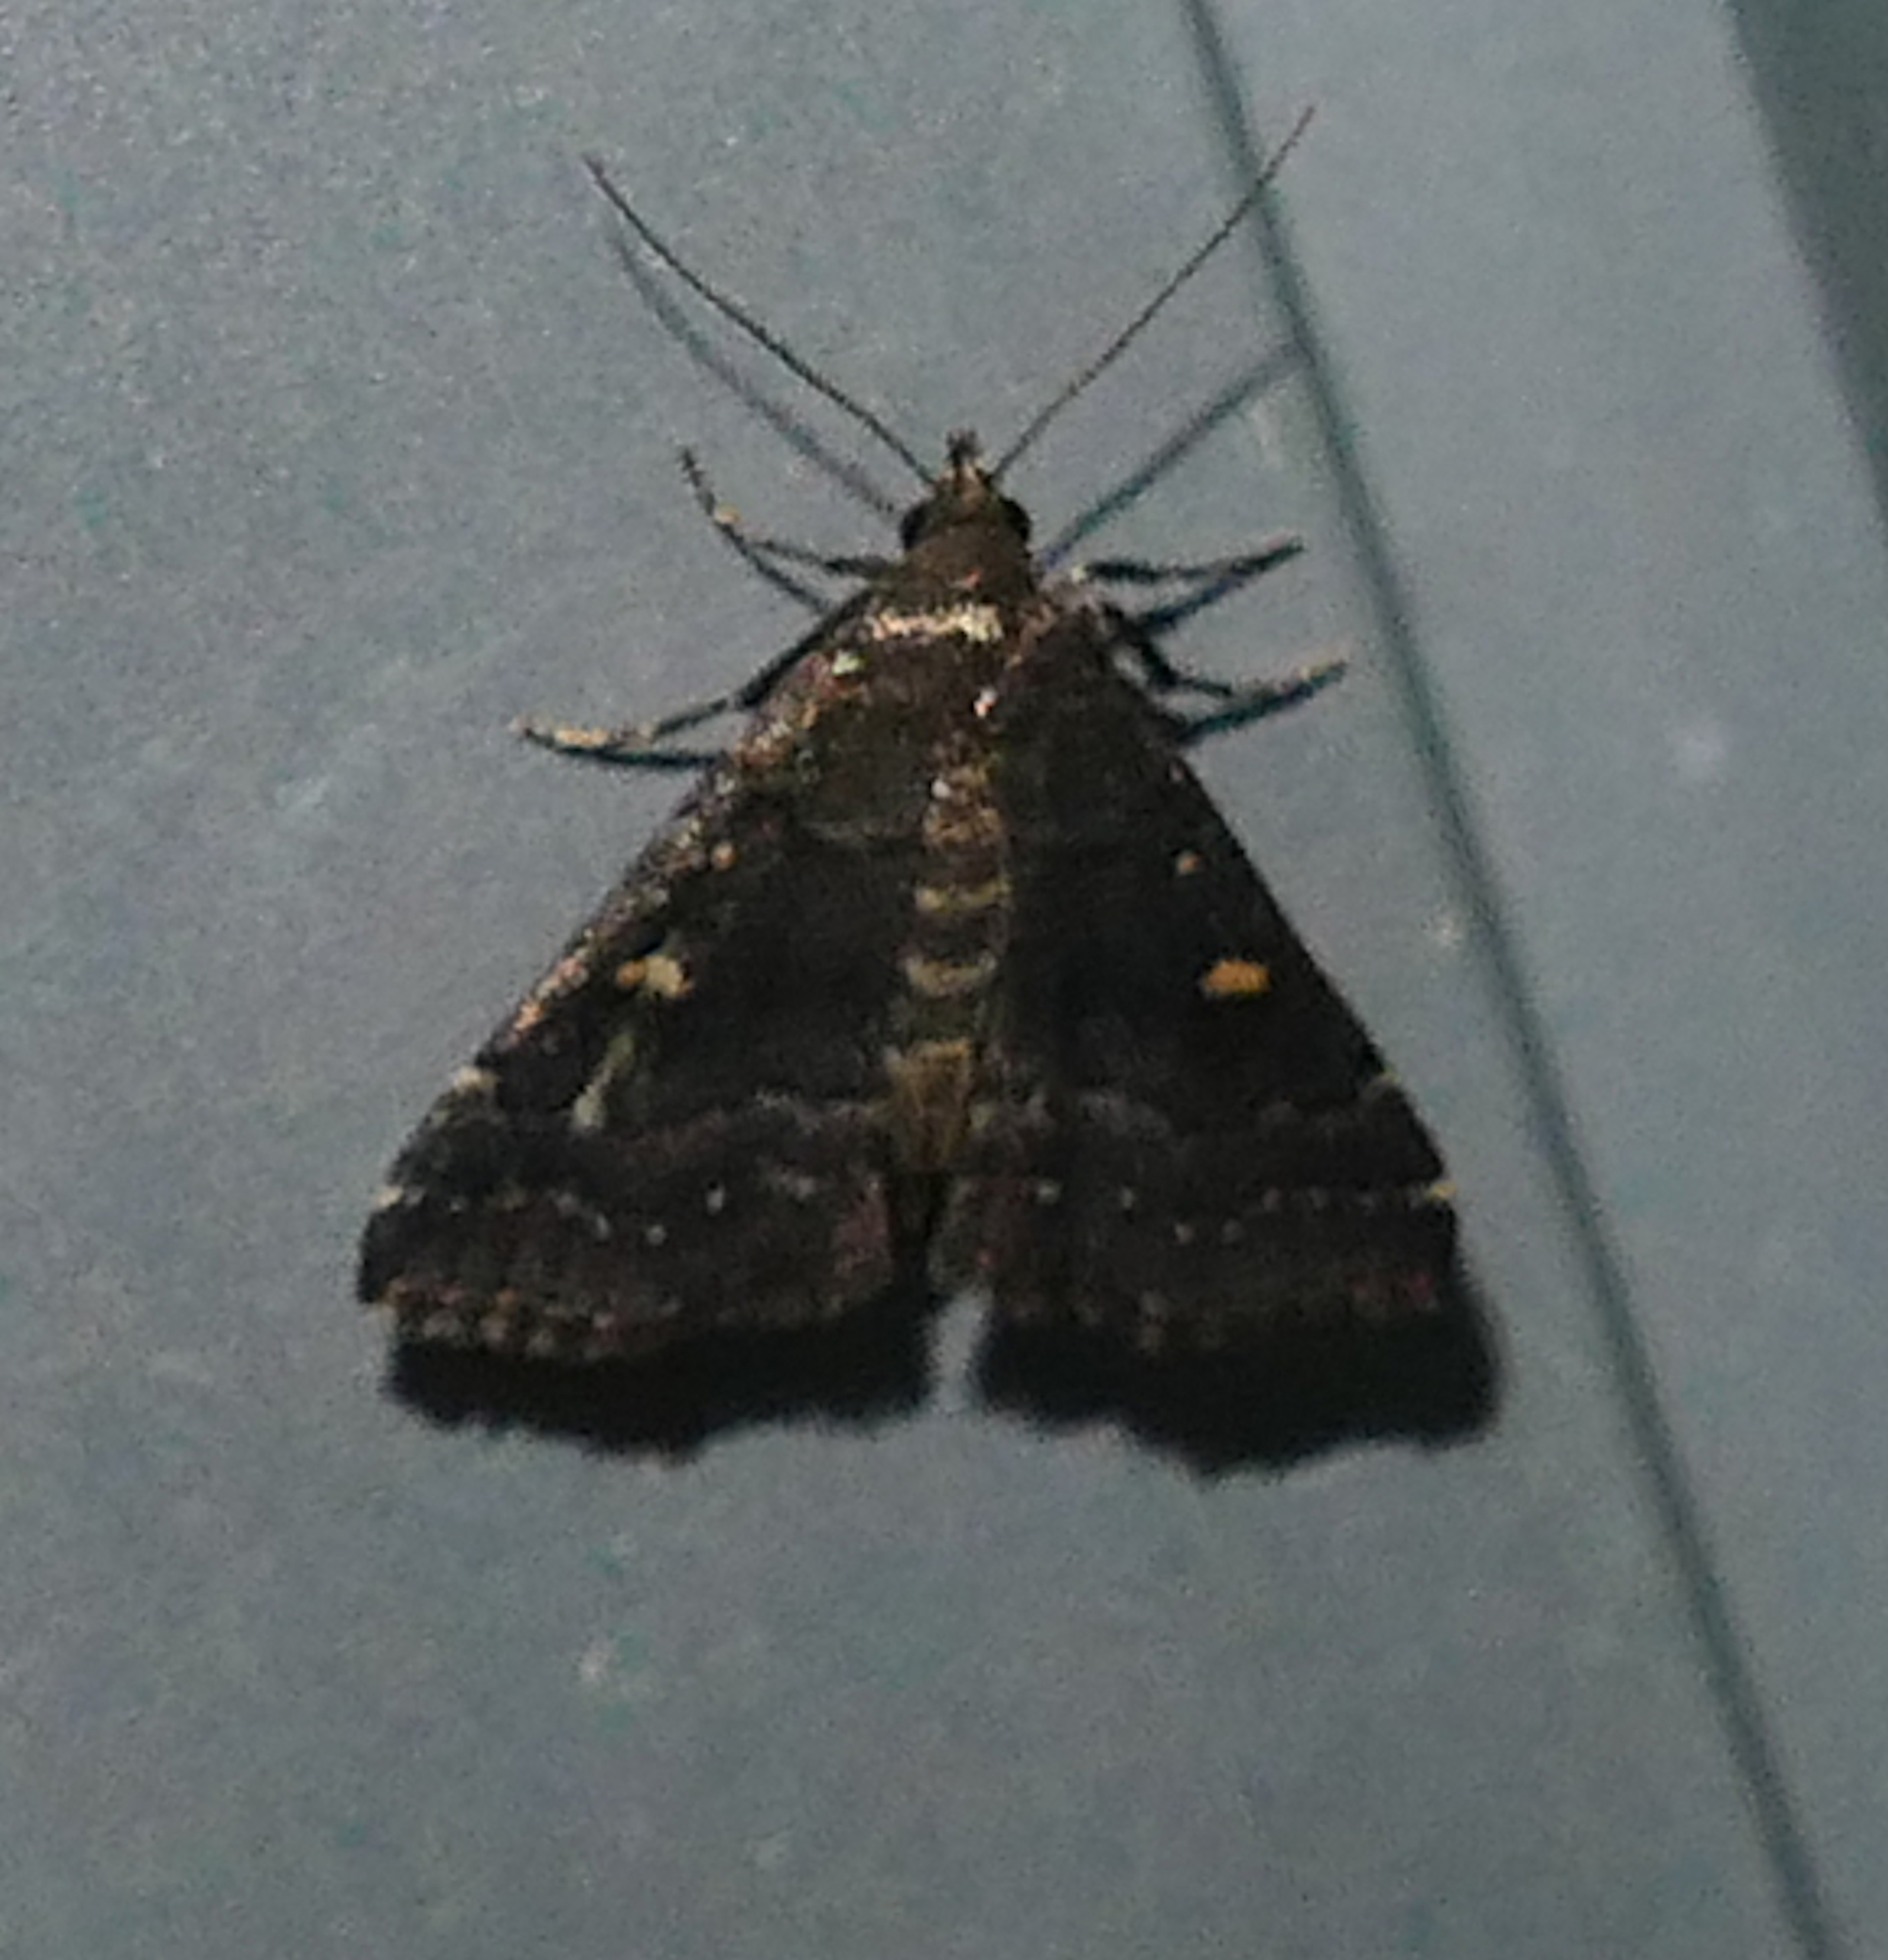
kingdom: Animalia
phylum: Arthropoda
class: Insecta
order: Lepidoptera
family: Erebidae
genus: Tetanolita
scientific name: Tetanolita mynesalis
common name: Smoky tetanolita moth
